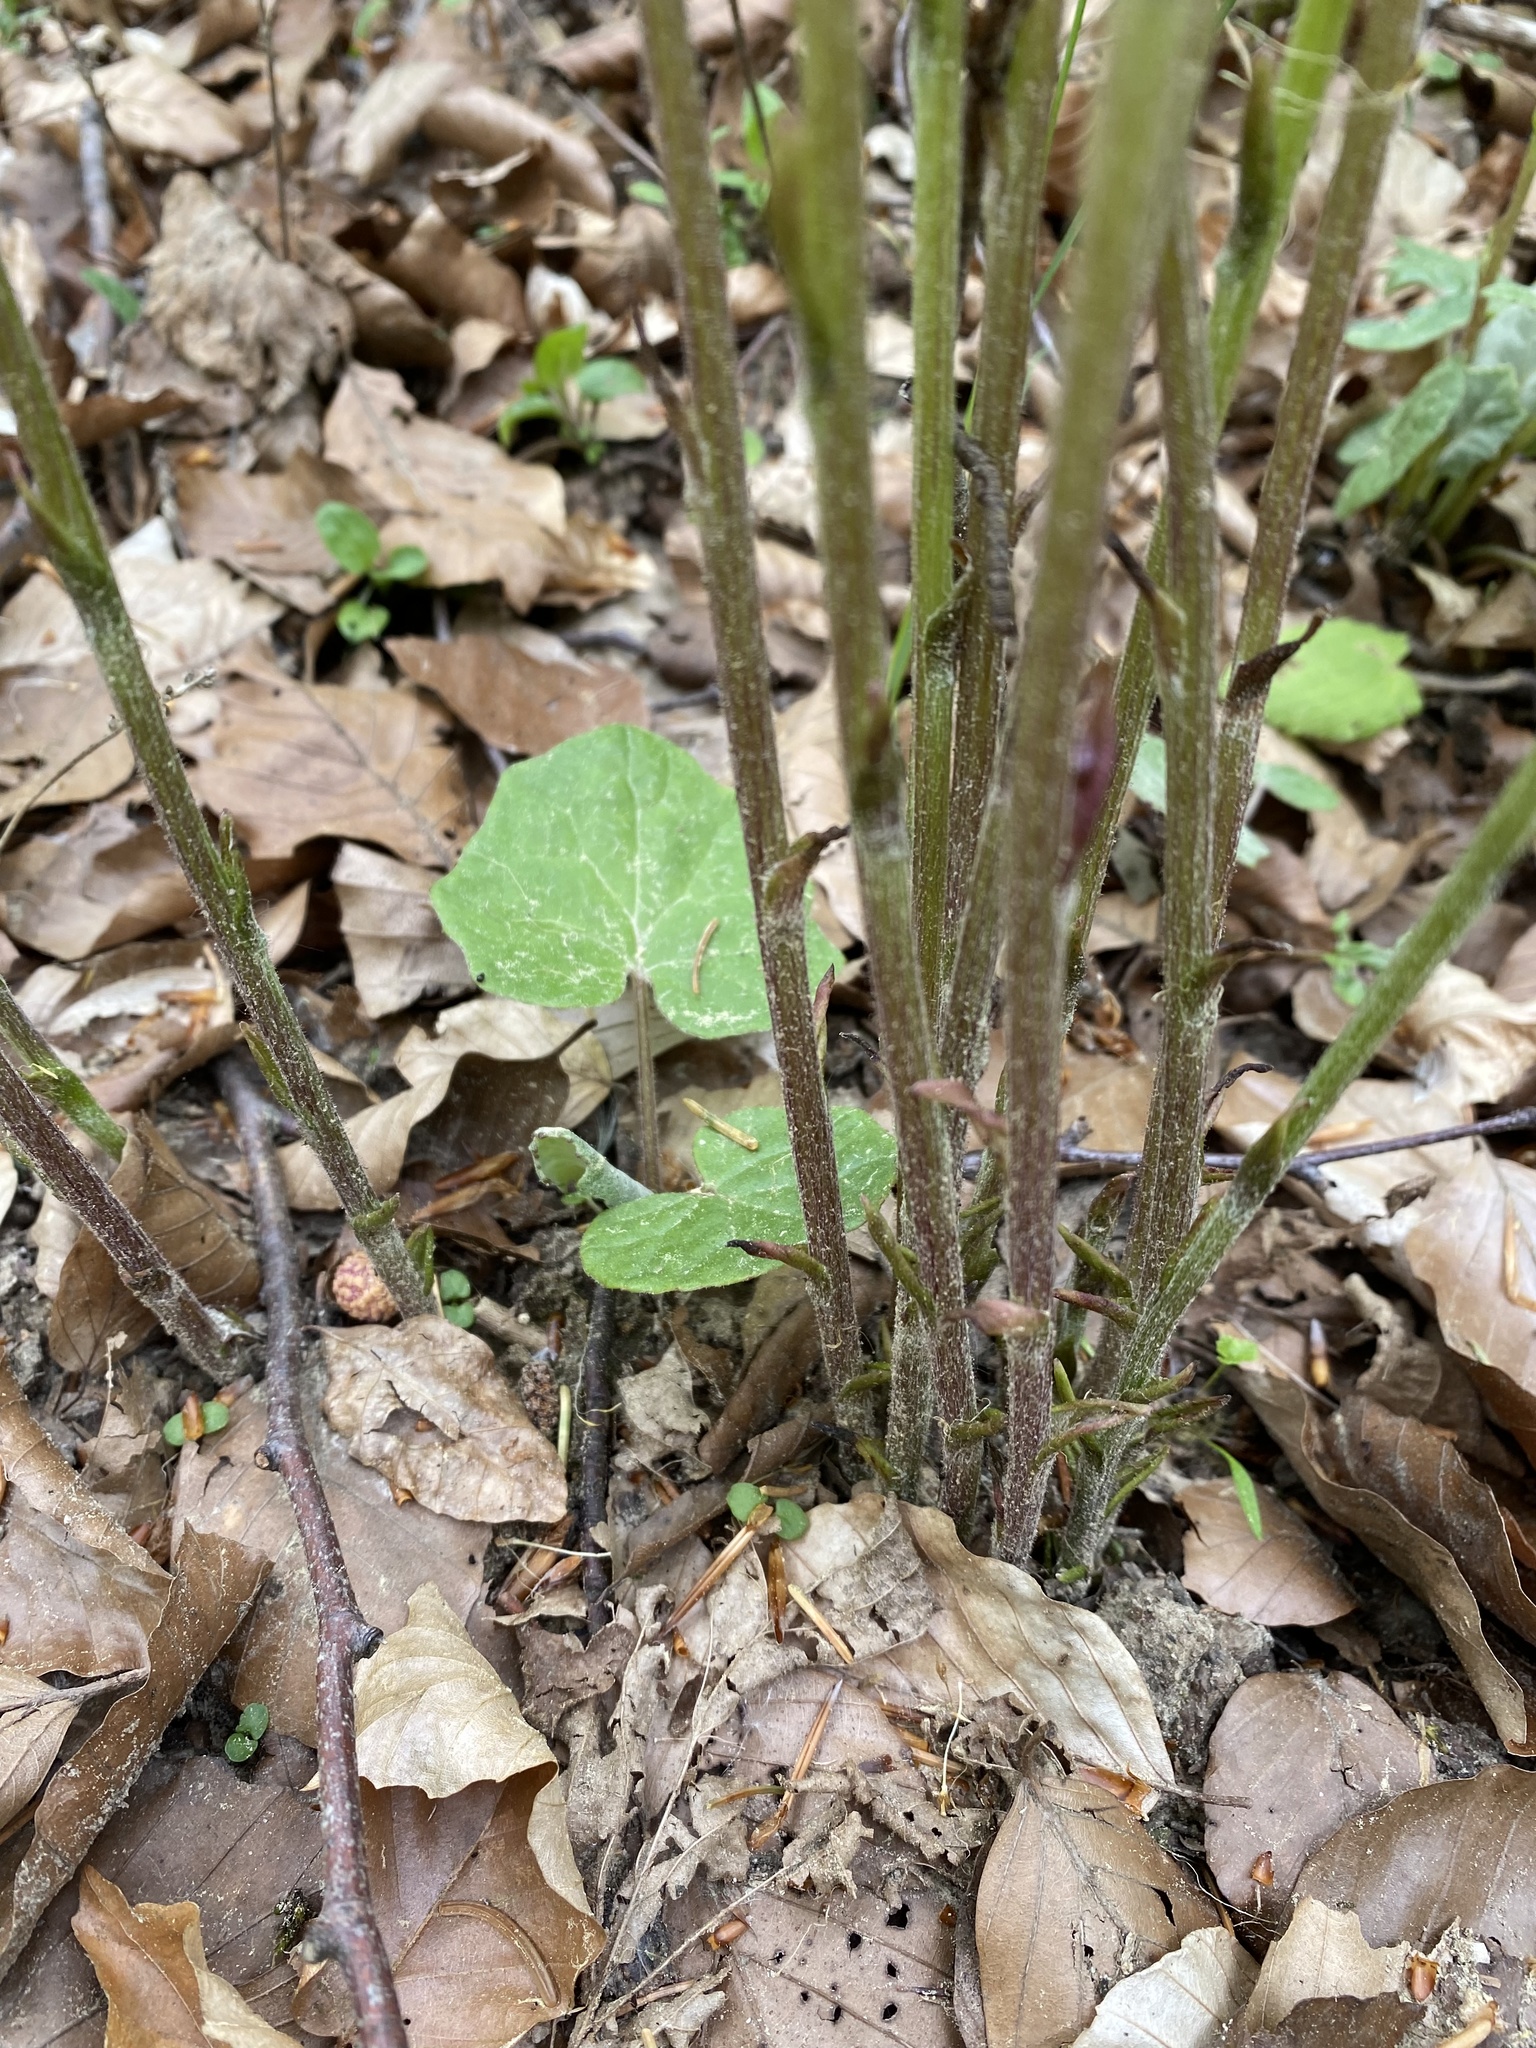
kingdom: Plantae
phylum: Tracheophyta
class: Magnoliopsida
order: Asterales
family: Asteraceae
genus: Tussilago
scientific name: Tussilago farfara
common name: Coltsfoot
